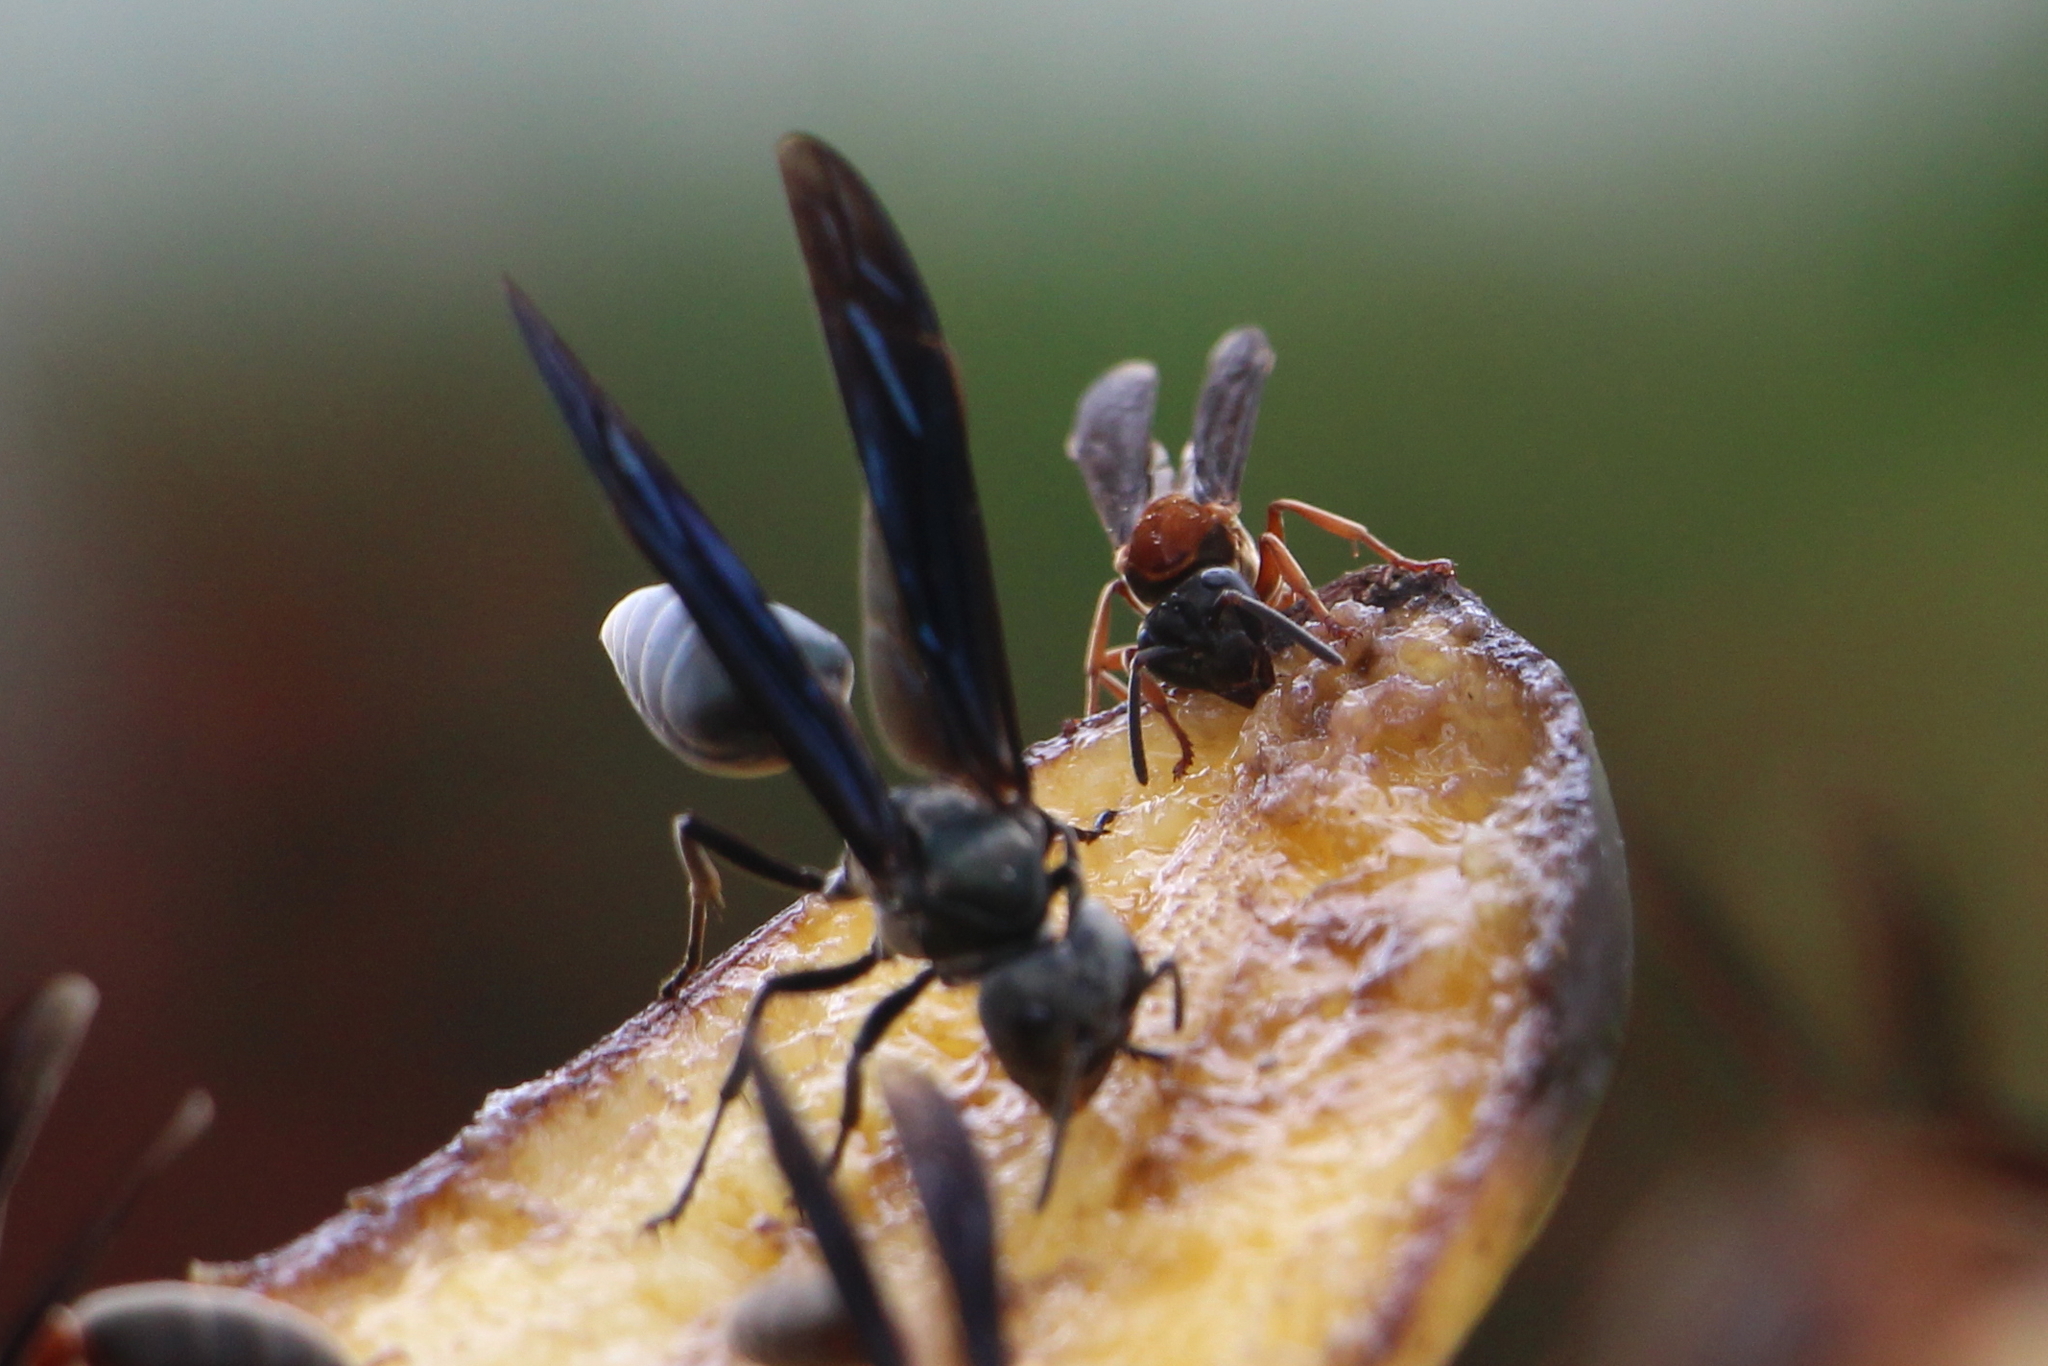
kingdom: Animalia
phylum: Arthropoda
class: Insecta
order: Hymenoptera
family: Vespidae
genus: Synoeca
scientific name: Synoeca septentrionalis
